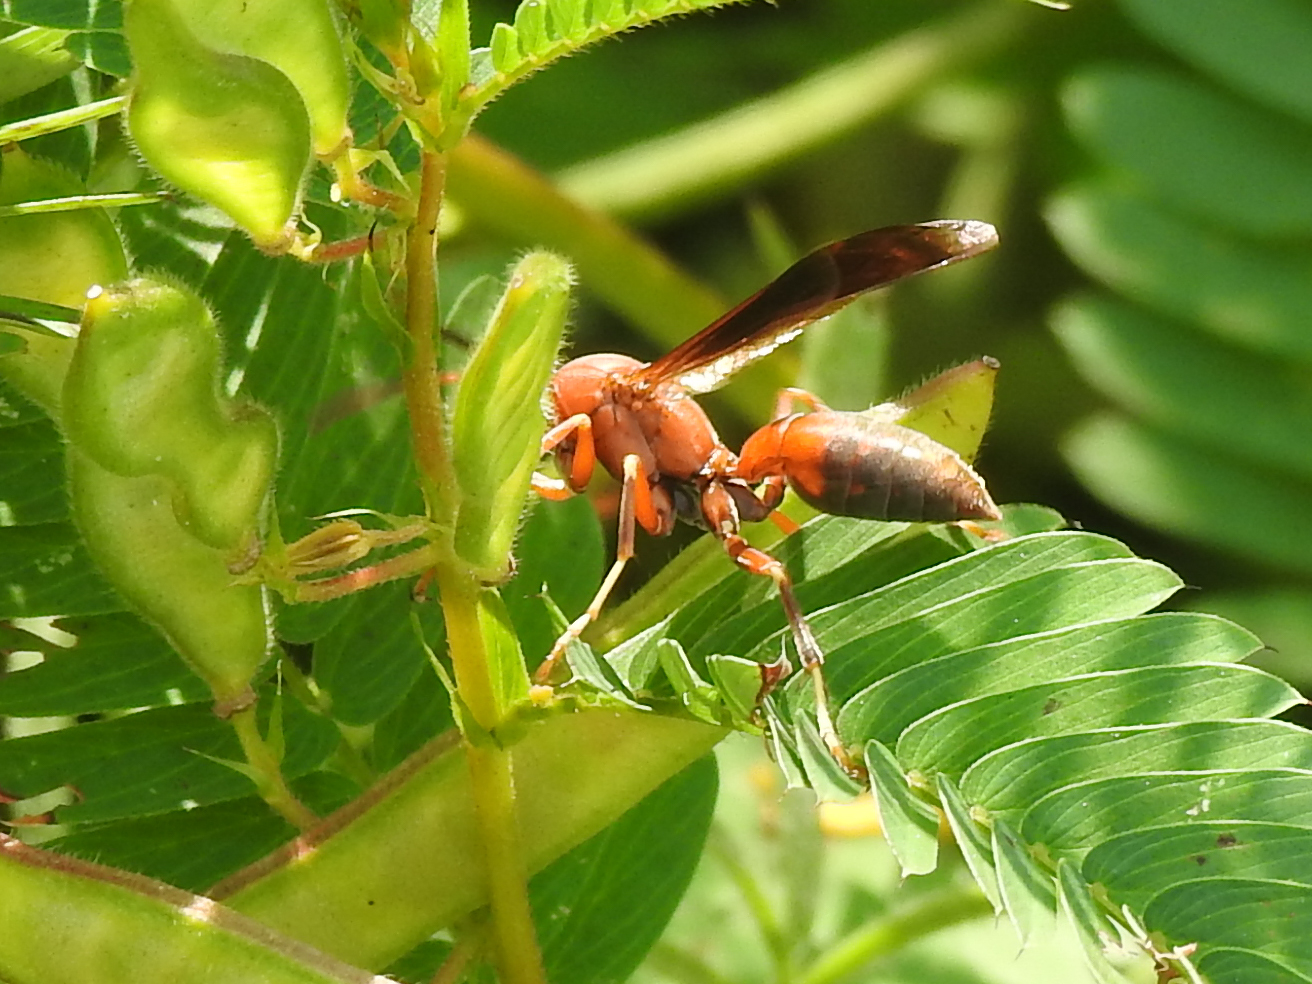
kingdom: Animalia
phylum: Arthropoda
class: Insecta
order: Hymenoptera
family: Eumenidae
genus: Polistes
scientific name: Polistes metricus
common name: Metric paper wasp
